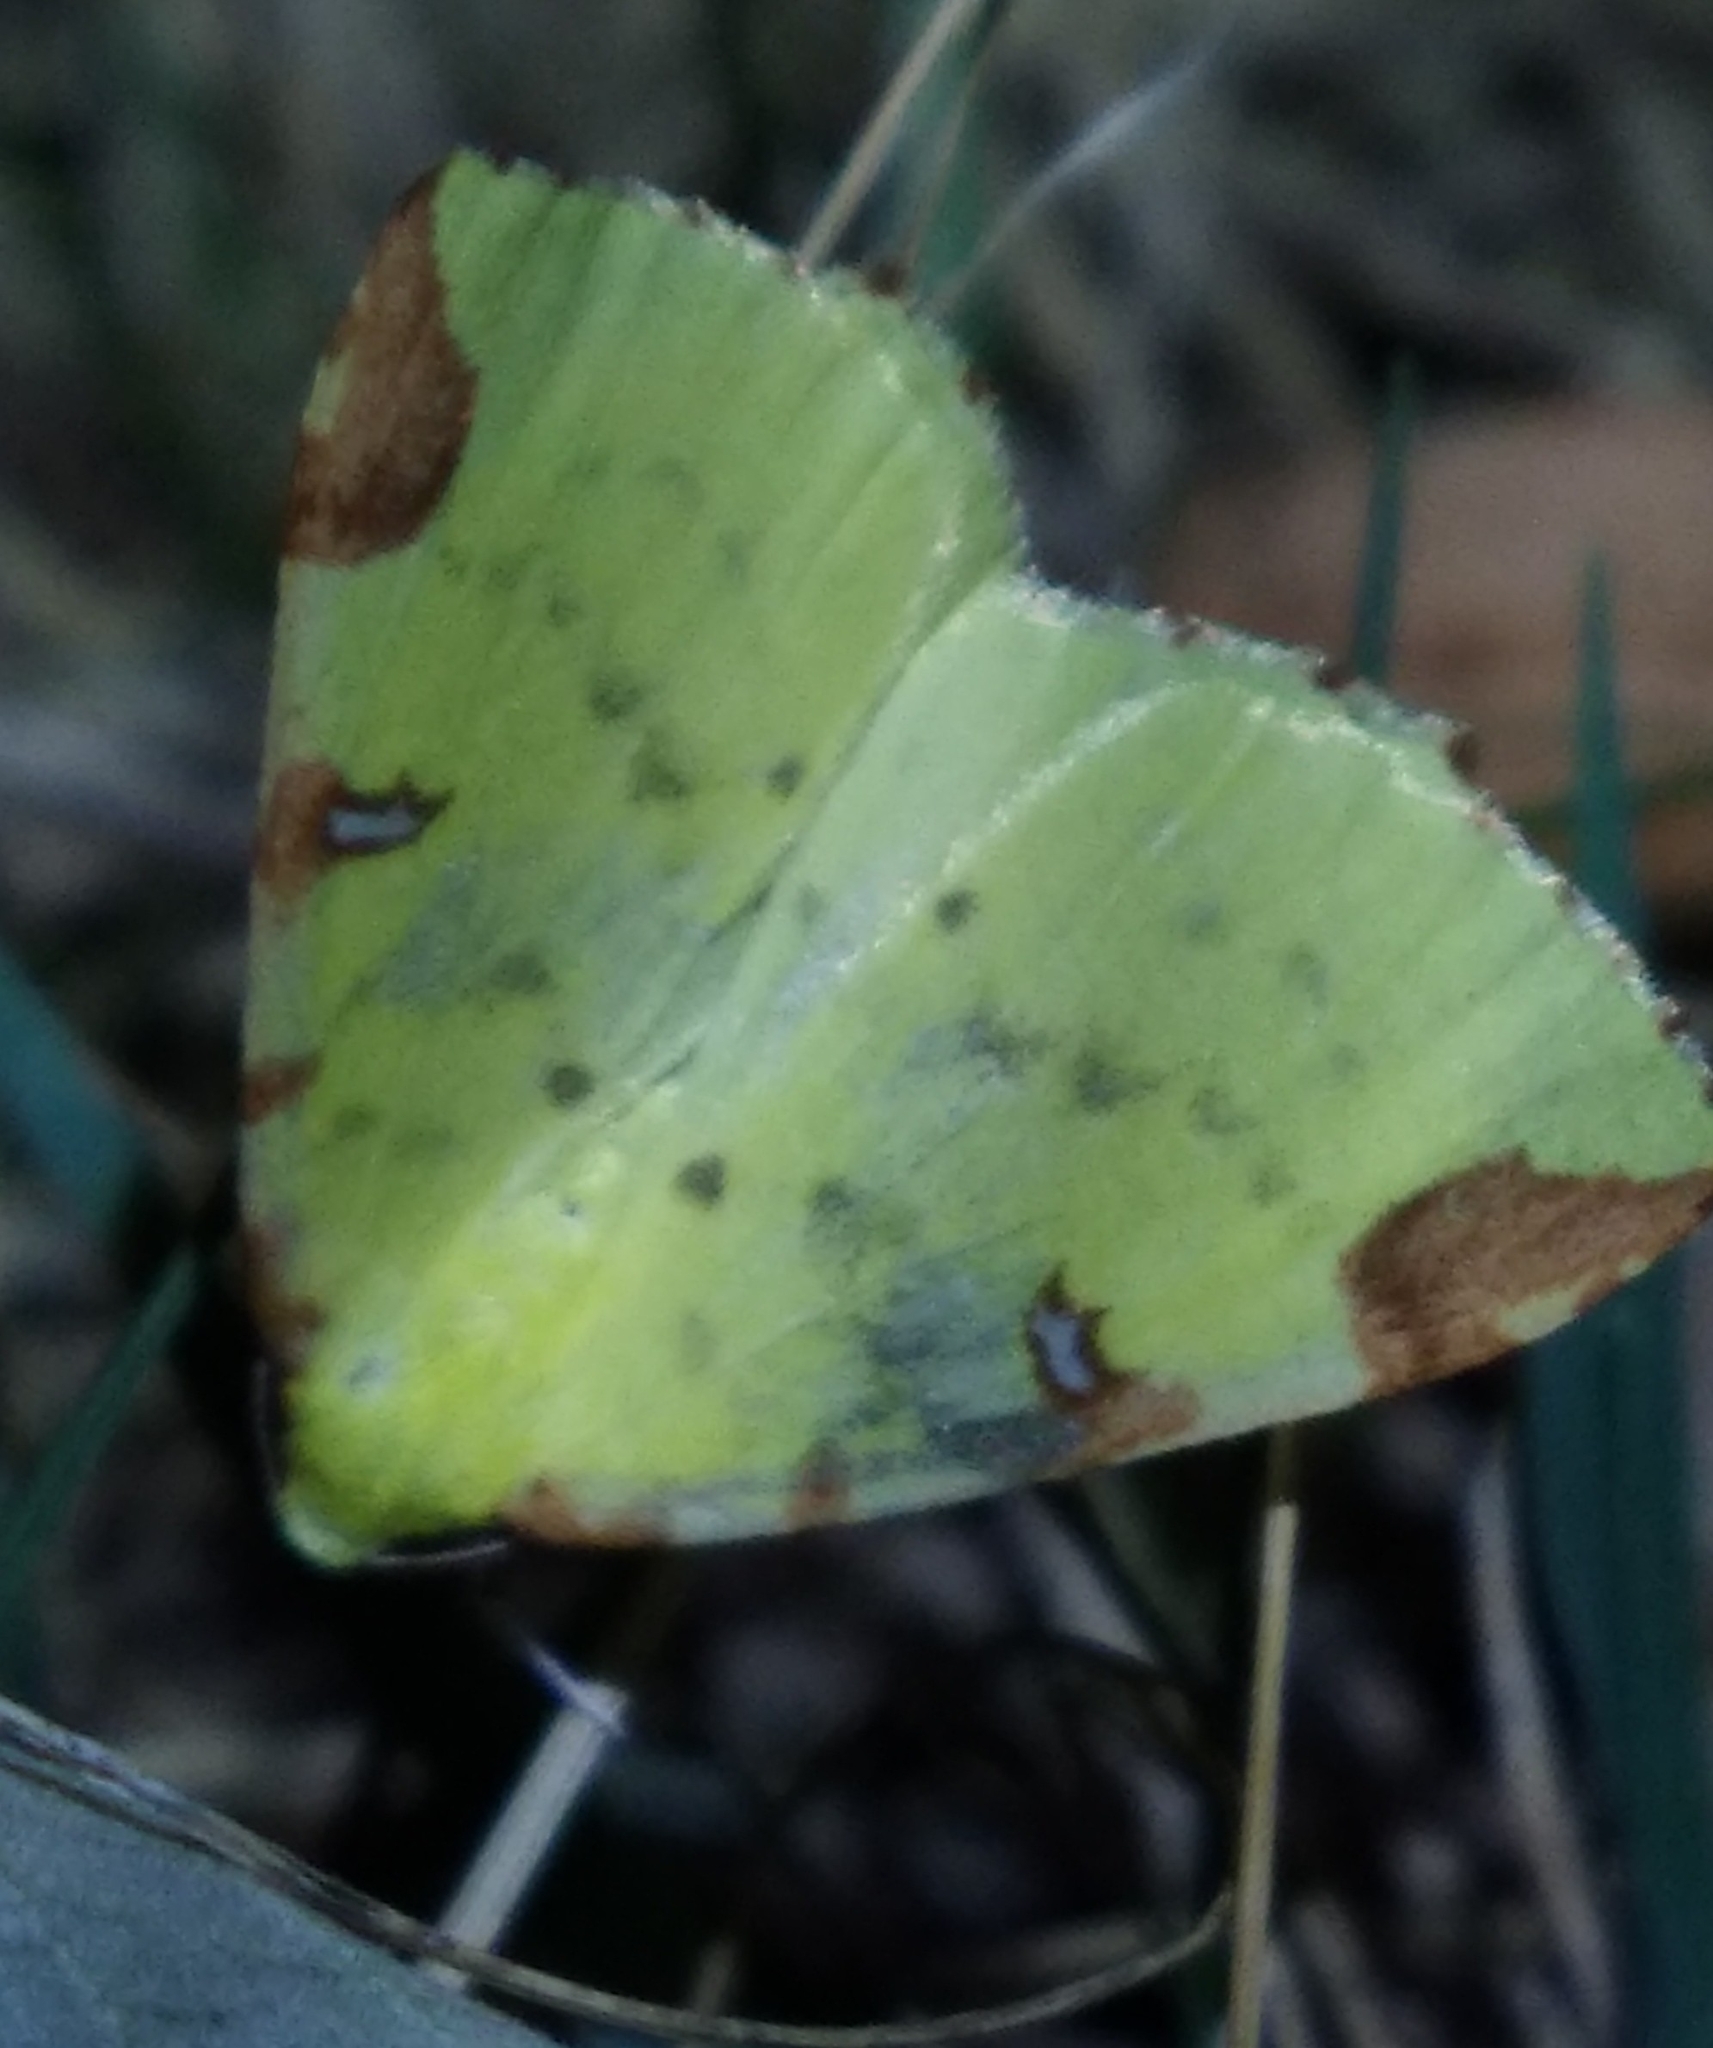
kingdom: Animalia
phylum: Arthropoda
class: Insecta
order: Lepidoptera
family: Geometridae
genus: Opisthograptis
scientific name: Opisthograptis luteolata
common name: Brimstone moth
